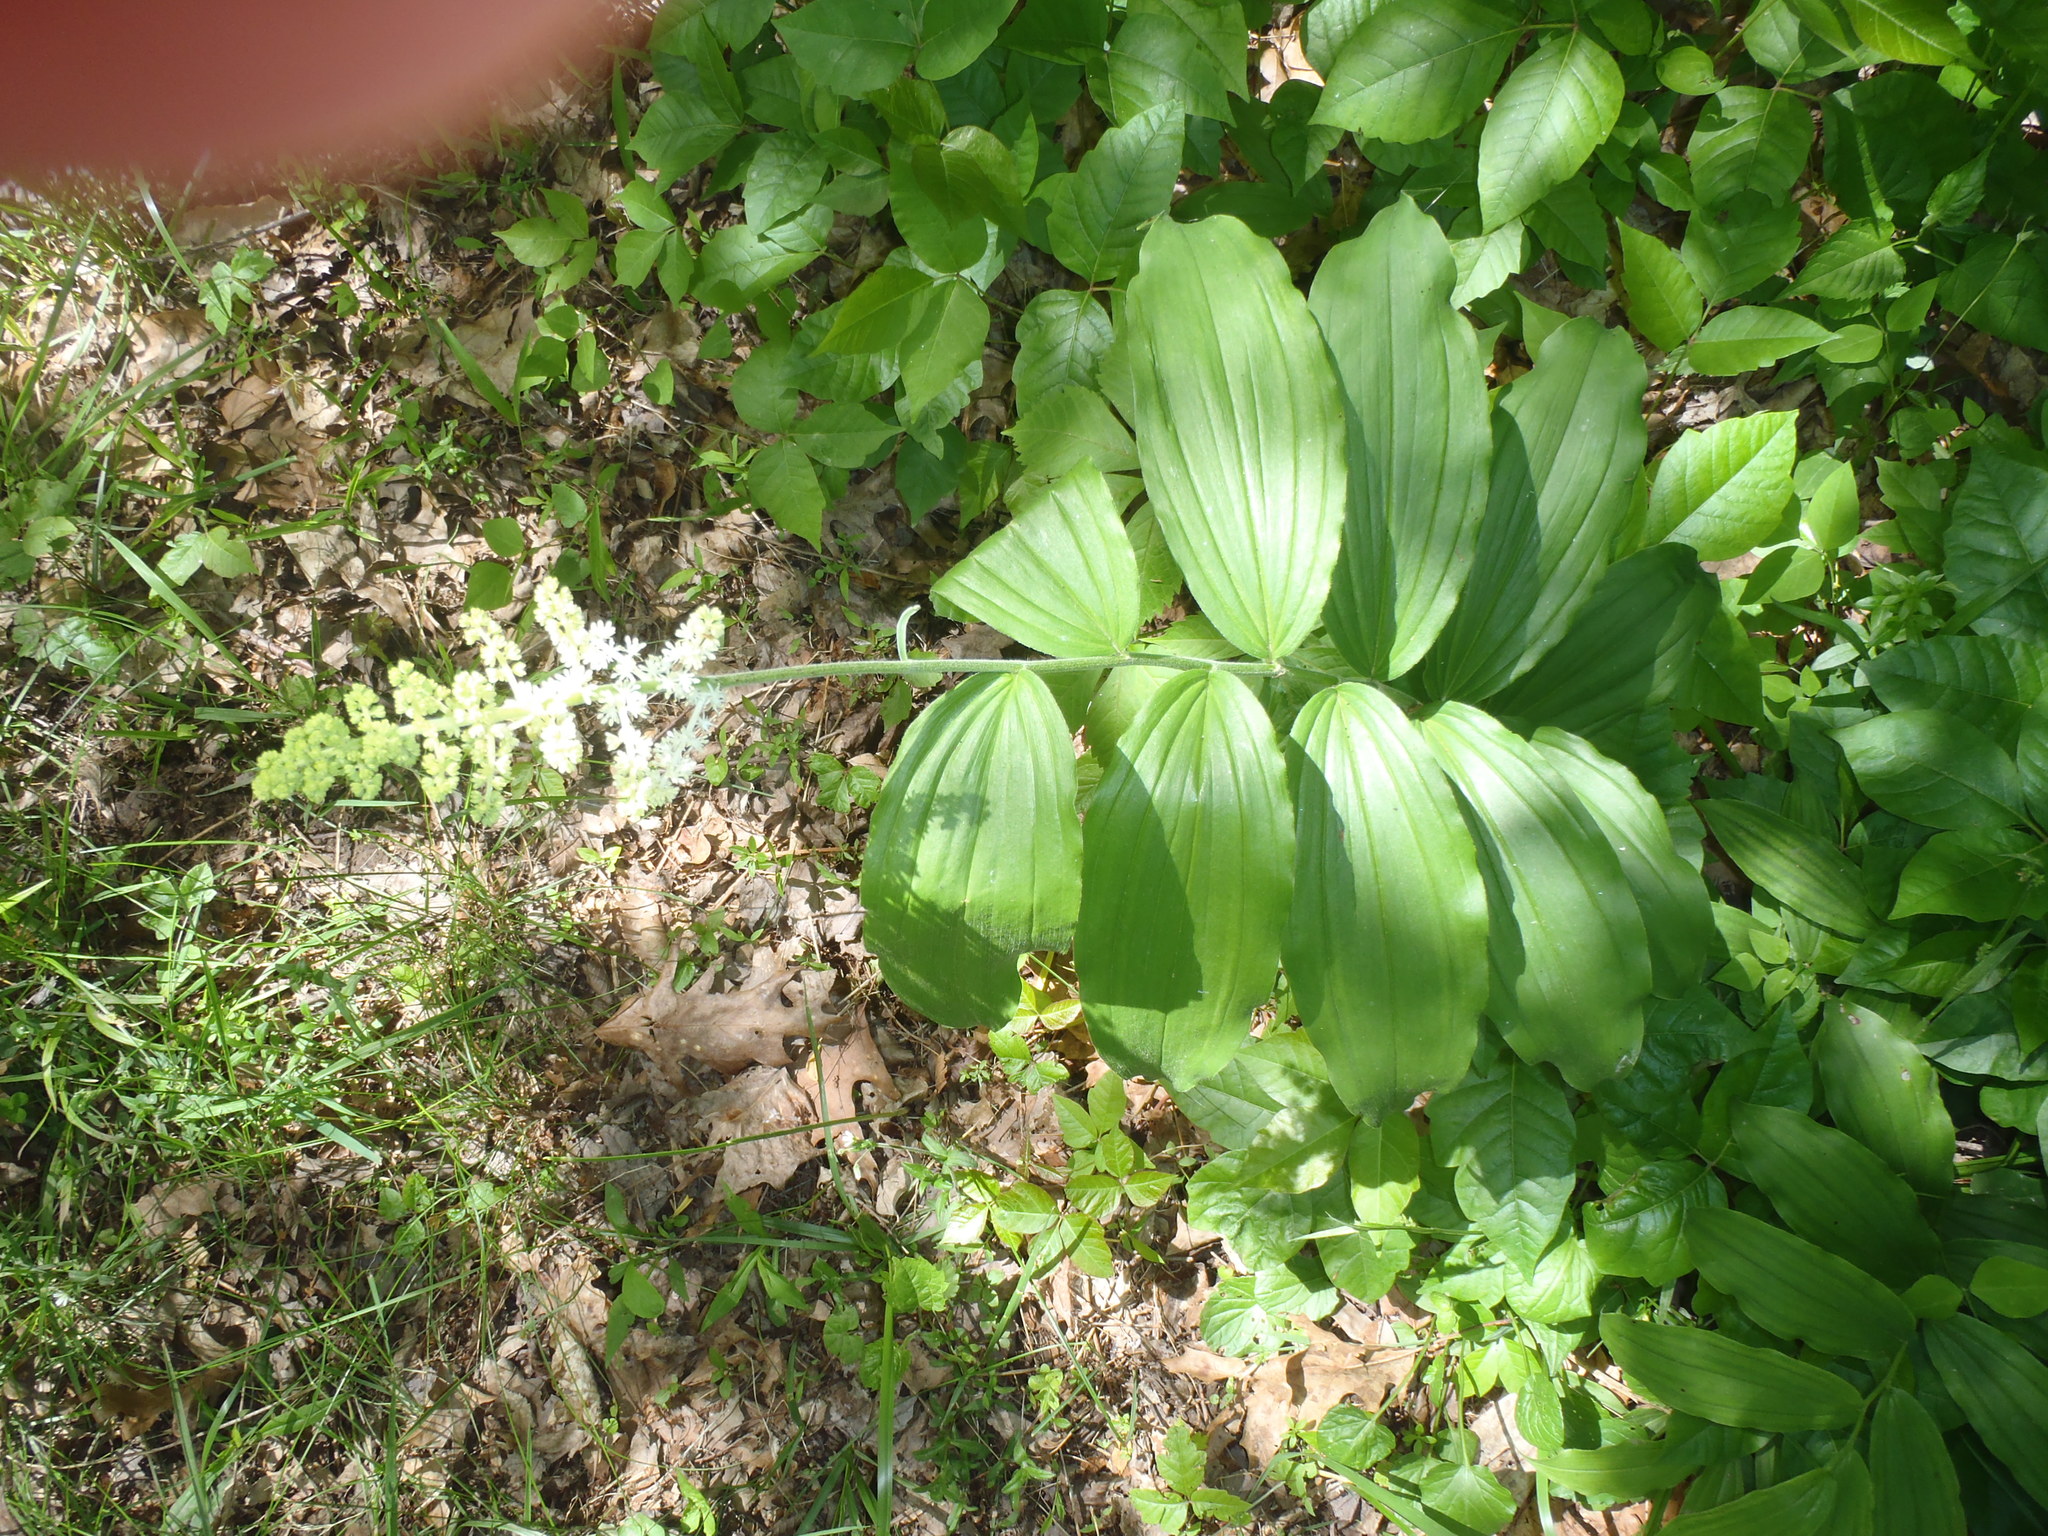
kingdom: Plantae
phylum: Tracheophyta
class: Liliopsida
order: Asparagales
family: Asparagaceae
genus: Maianthemum
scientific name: Maianthemum racemosum
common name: False spikenard
